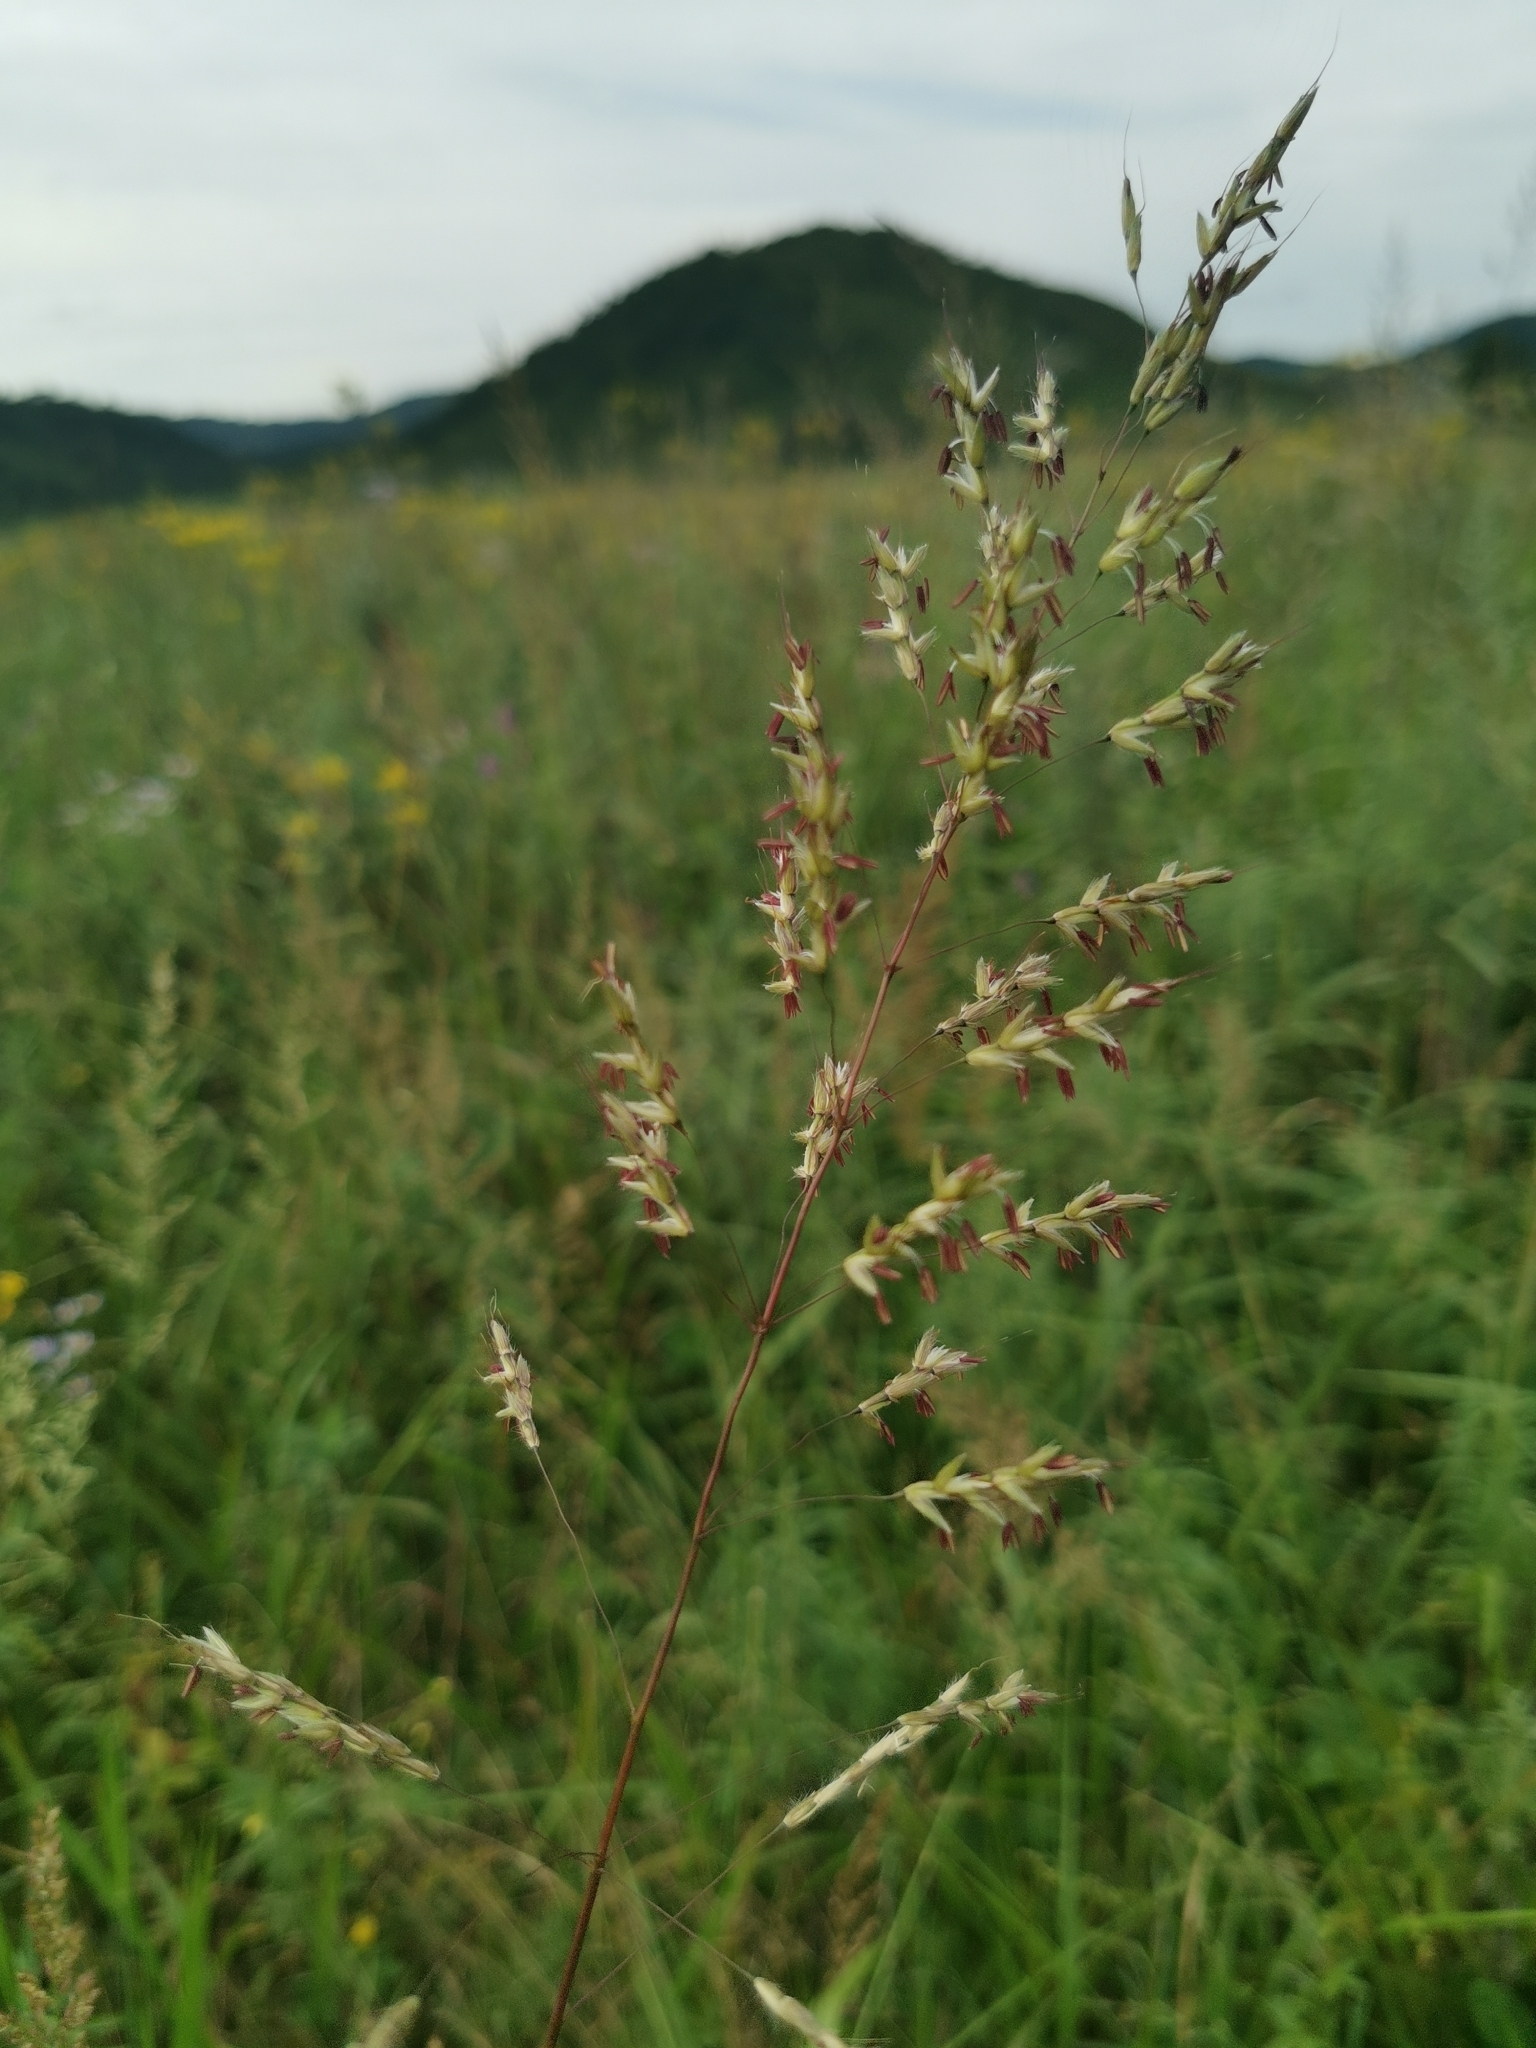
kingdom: Plantae
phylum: Tracheophyta
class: Liliopsida
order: Poales
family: Poaceae
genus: Spodiopogon
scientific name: Spodiopogon sibiricus
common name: Siberian graybeard
